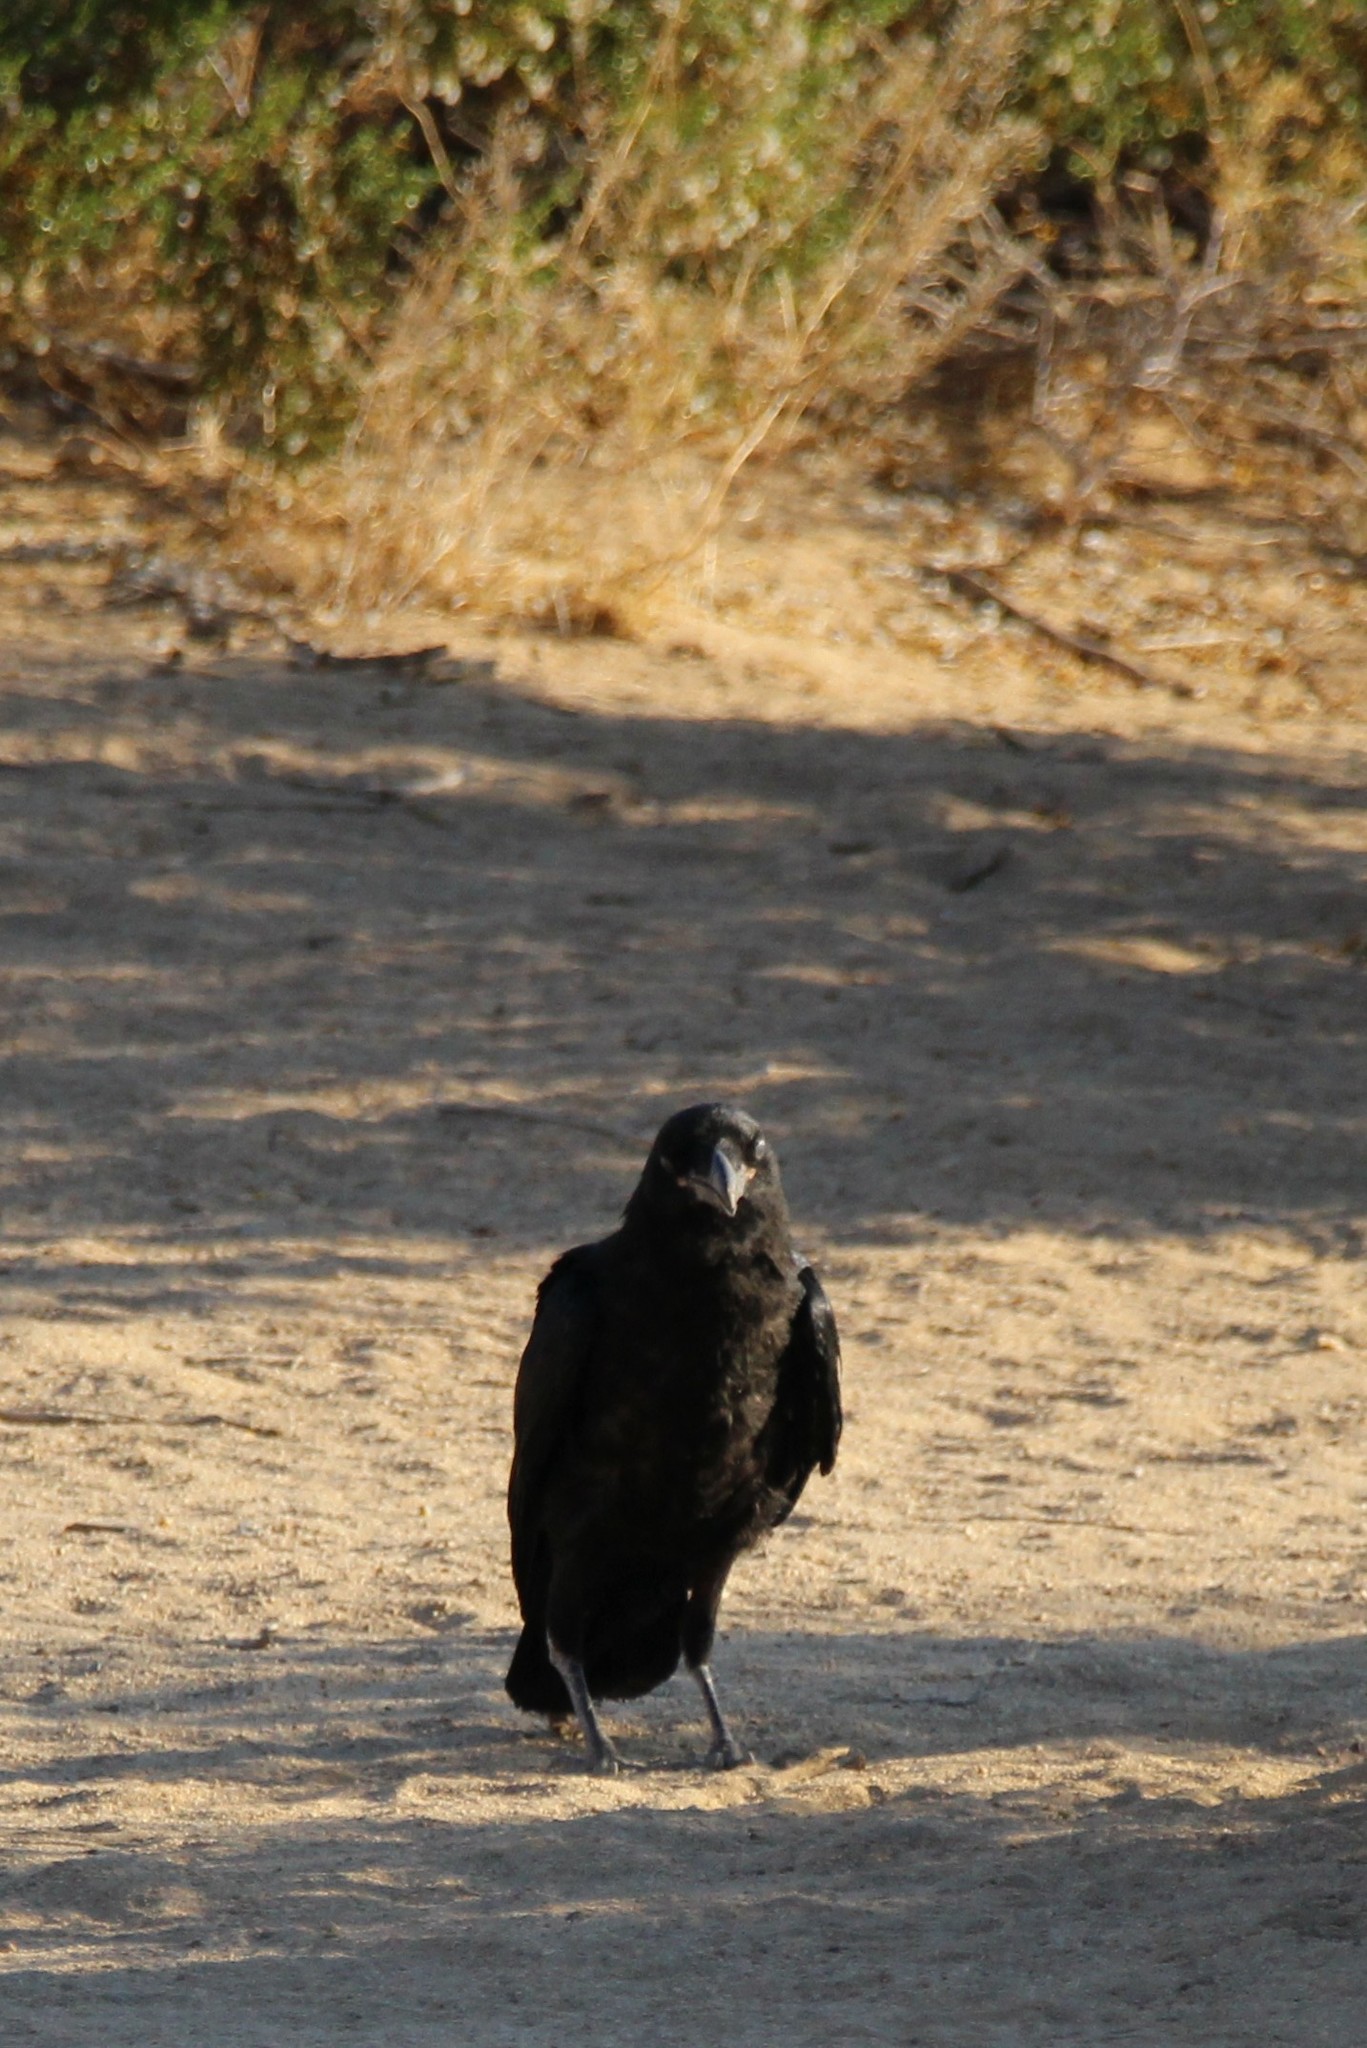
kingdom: Animalia
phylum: Chordata
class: Aves
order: Passeriformes
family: Corvidae
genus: Corvus
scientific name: Corvus corax
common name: Common raven
